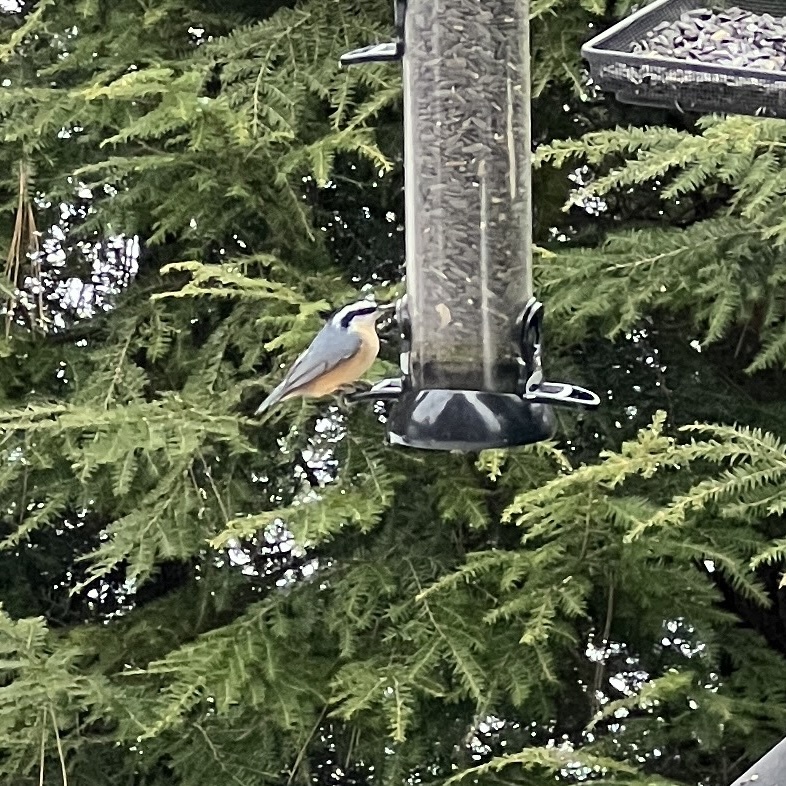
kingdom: Animalia
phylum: Chordata
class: Aves
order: Passeriformes
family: Sittidae
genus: Sitta
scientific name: Sitta canadensis
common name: Red-breasted nuthatch
